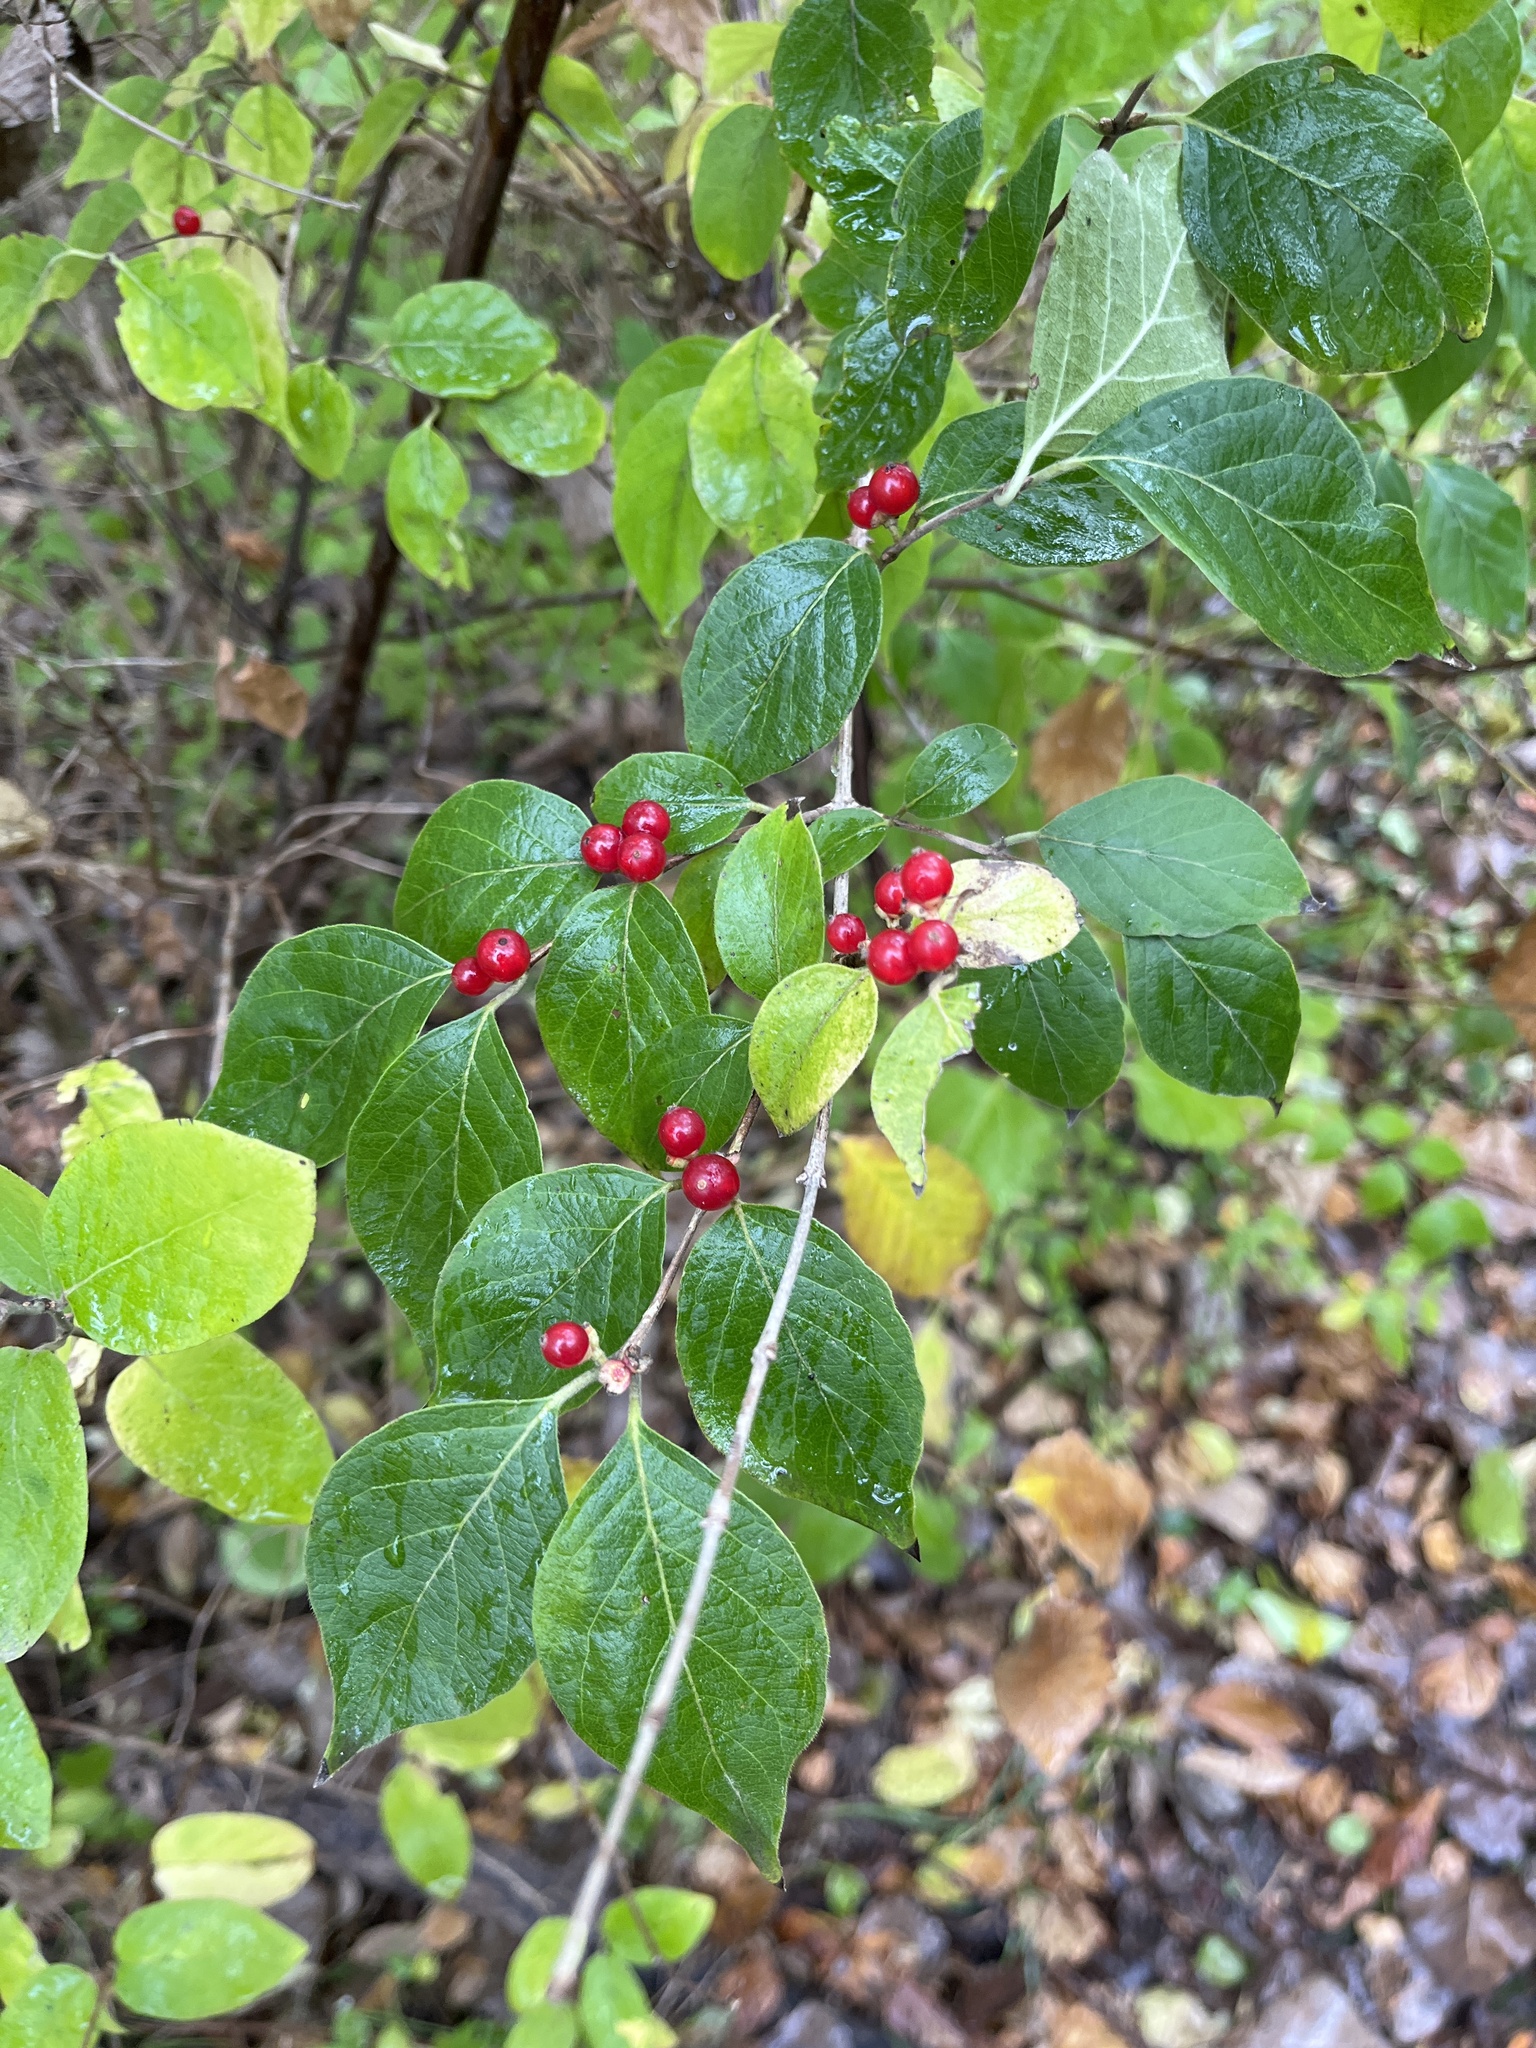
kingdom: Plantae
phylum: Tracheophyta
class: Magnoliopsida
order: Dipsacales
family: Caprifoliaceae
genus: Lonicera
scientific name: Lonicera maackii
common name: Amur honeysuckle
